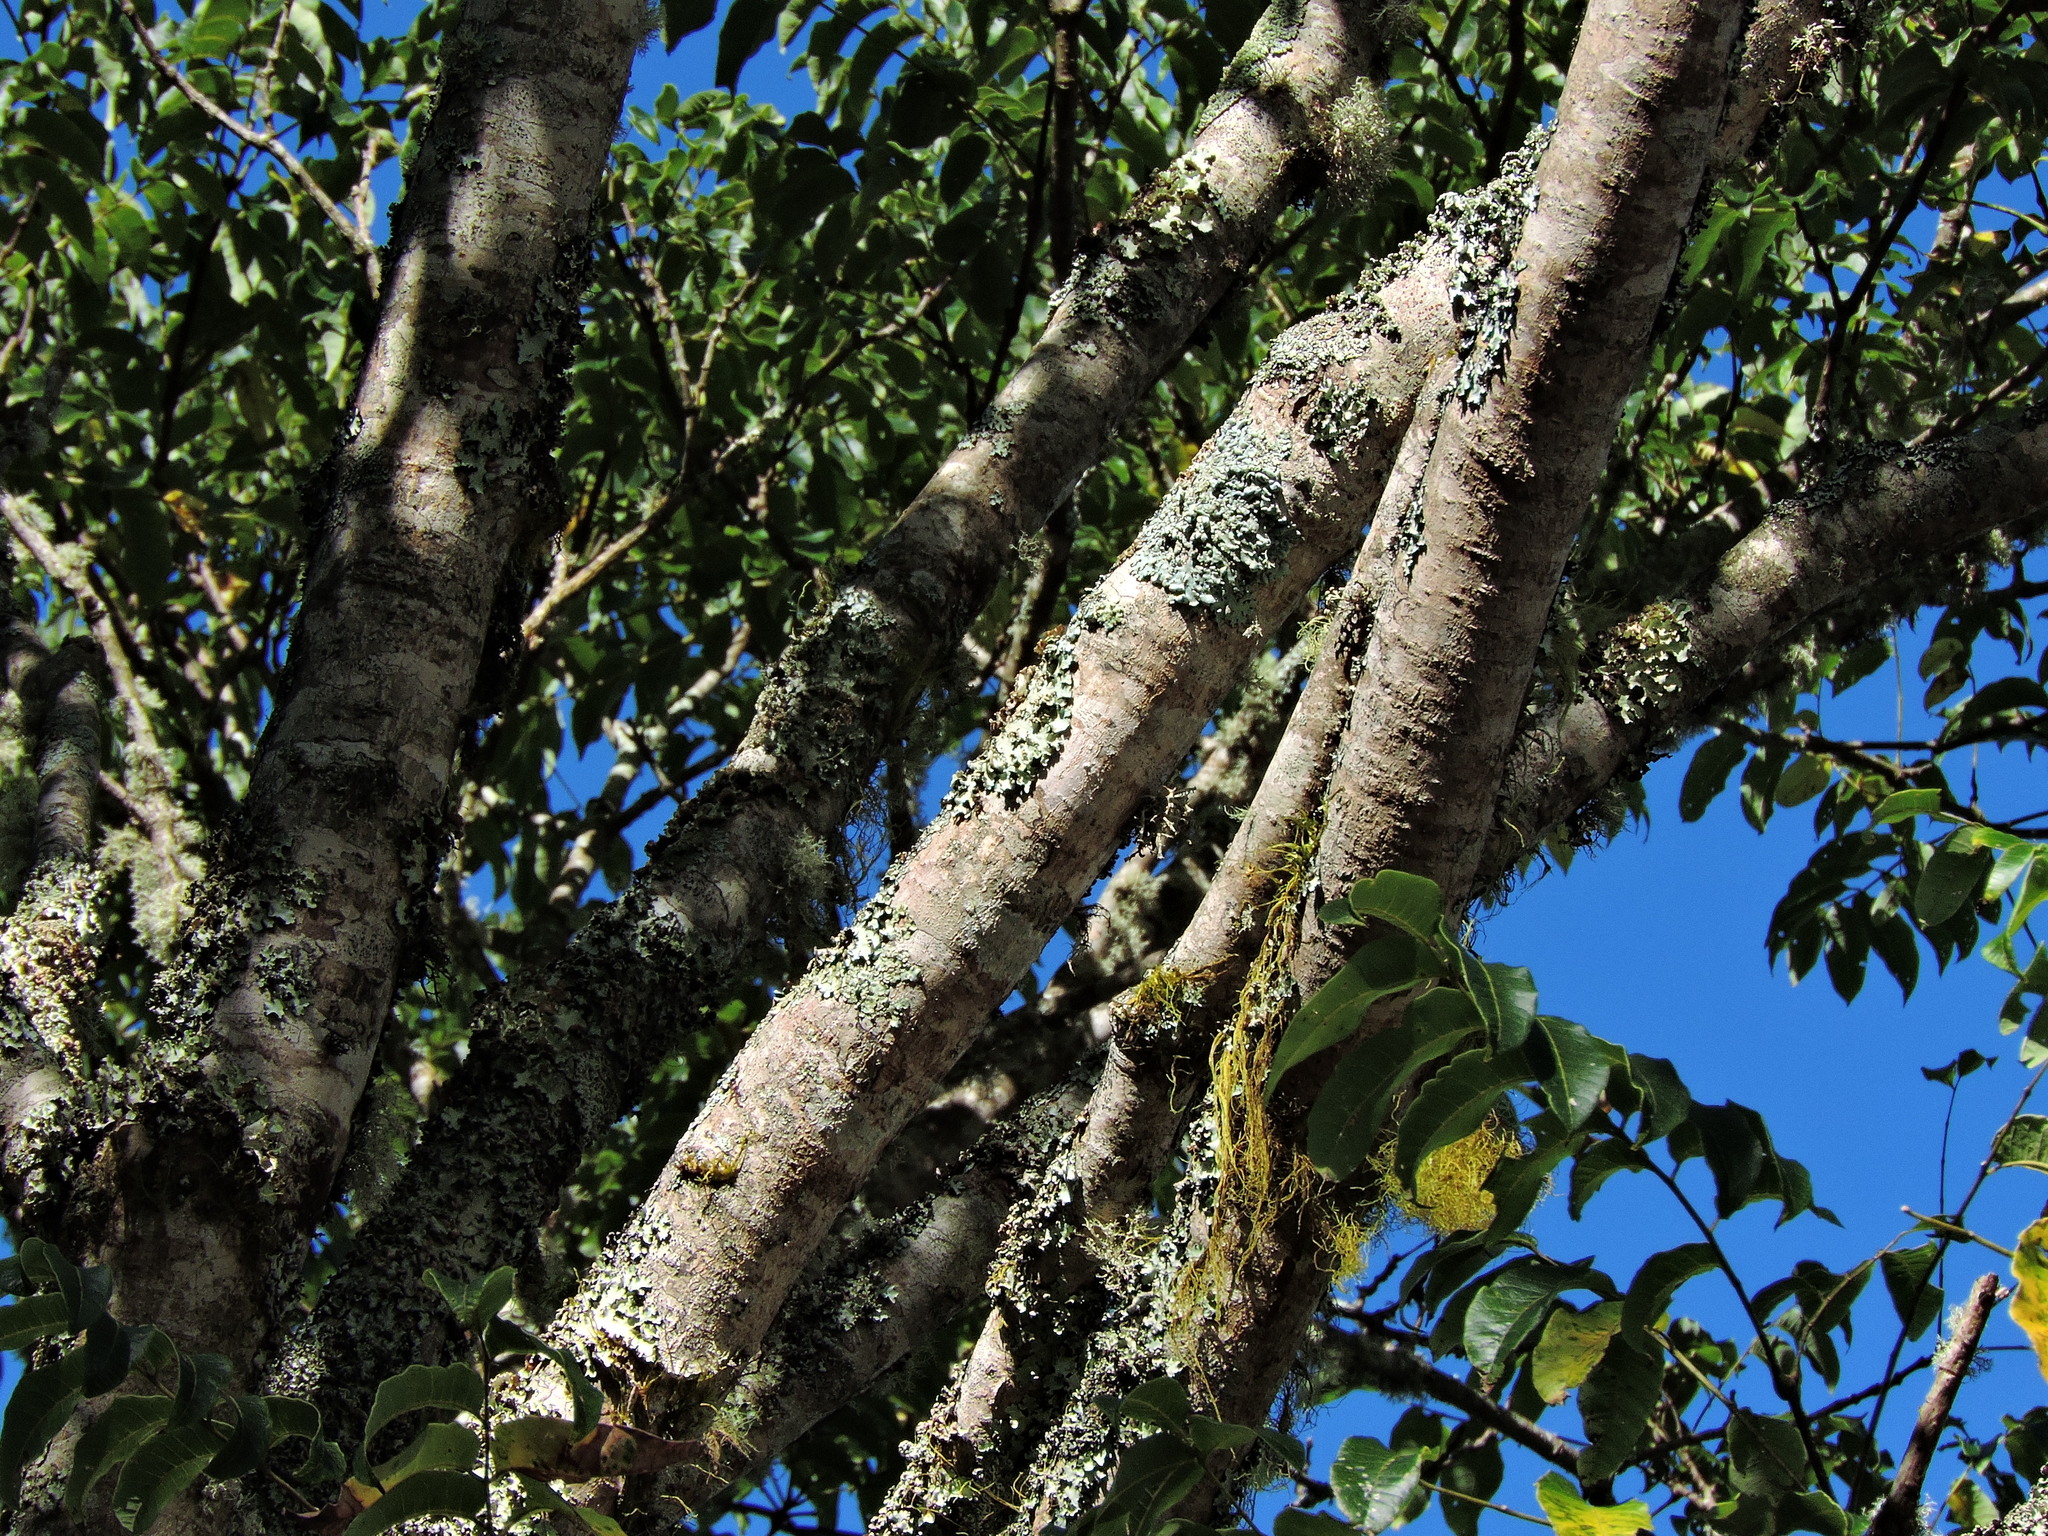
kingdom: Plantae
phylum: Tracheophyta
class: Magnoliopsida
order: Sapindales
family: Rutaceae
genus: Phellodendron
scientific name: Phellodendron chinense
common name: Phellodendron
